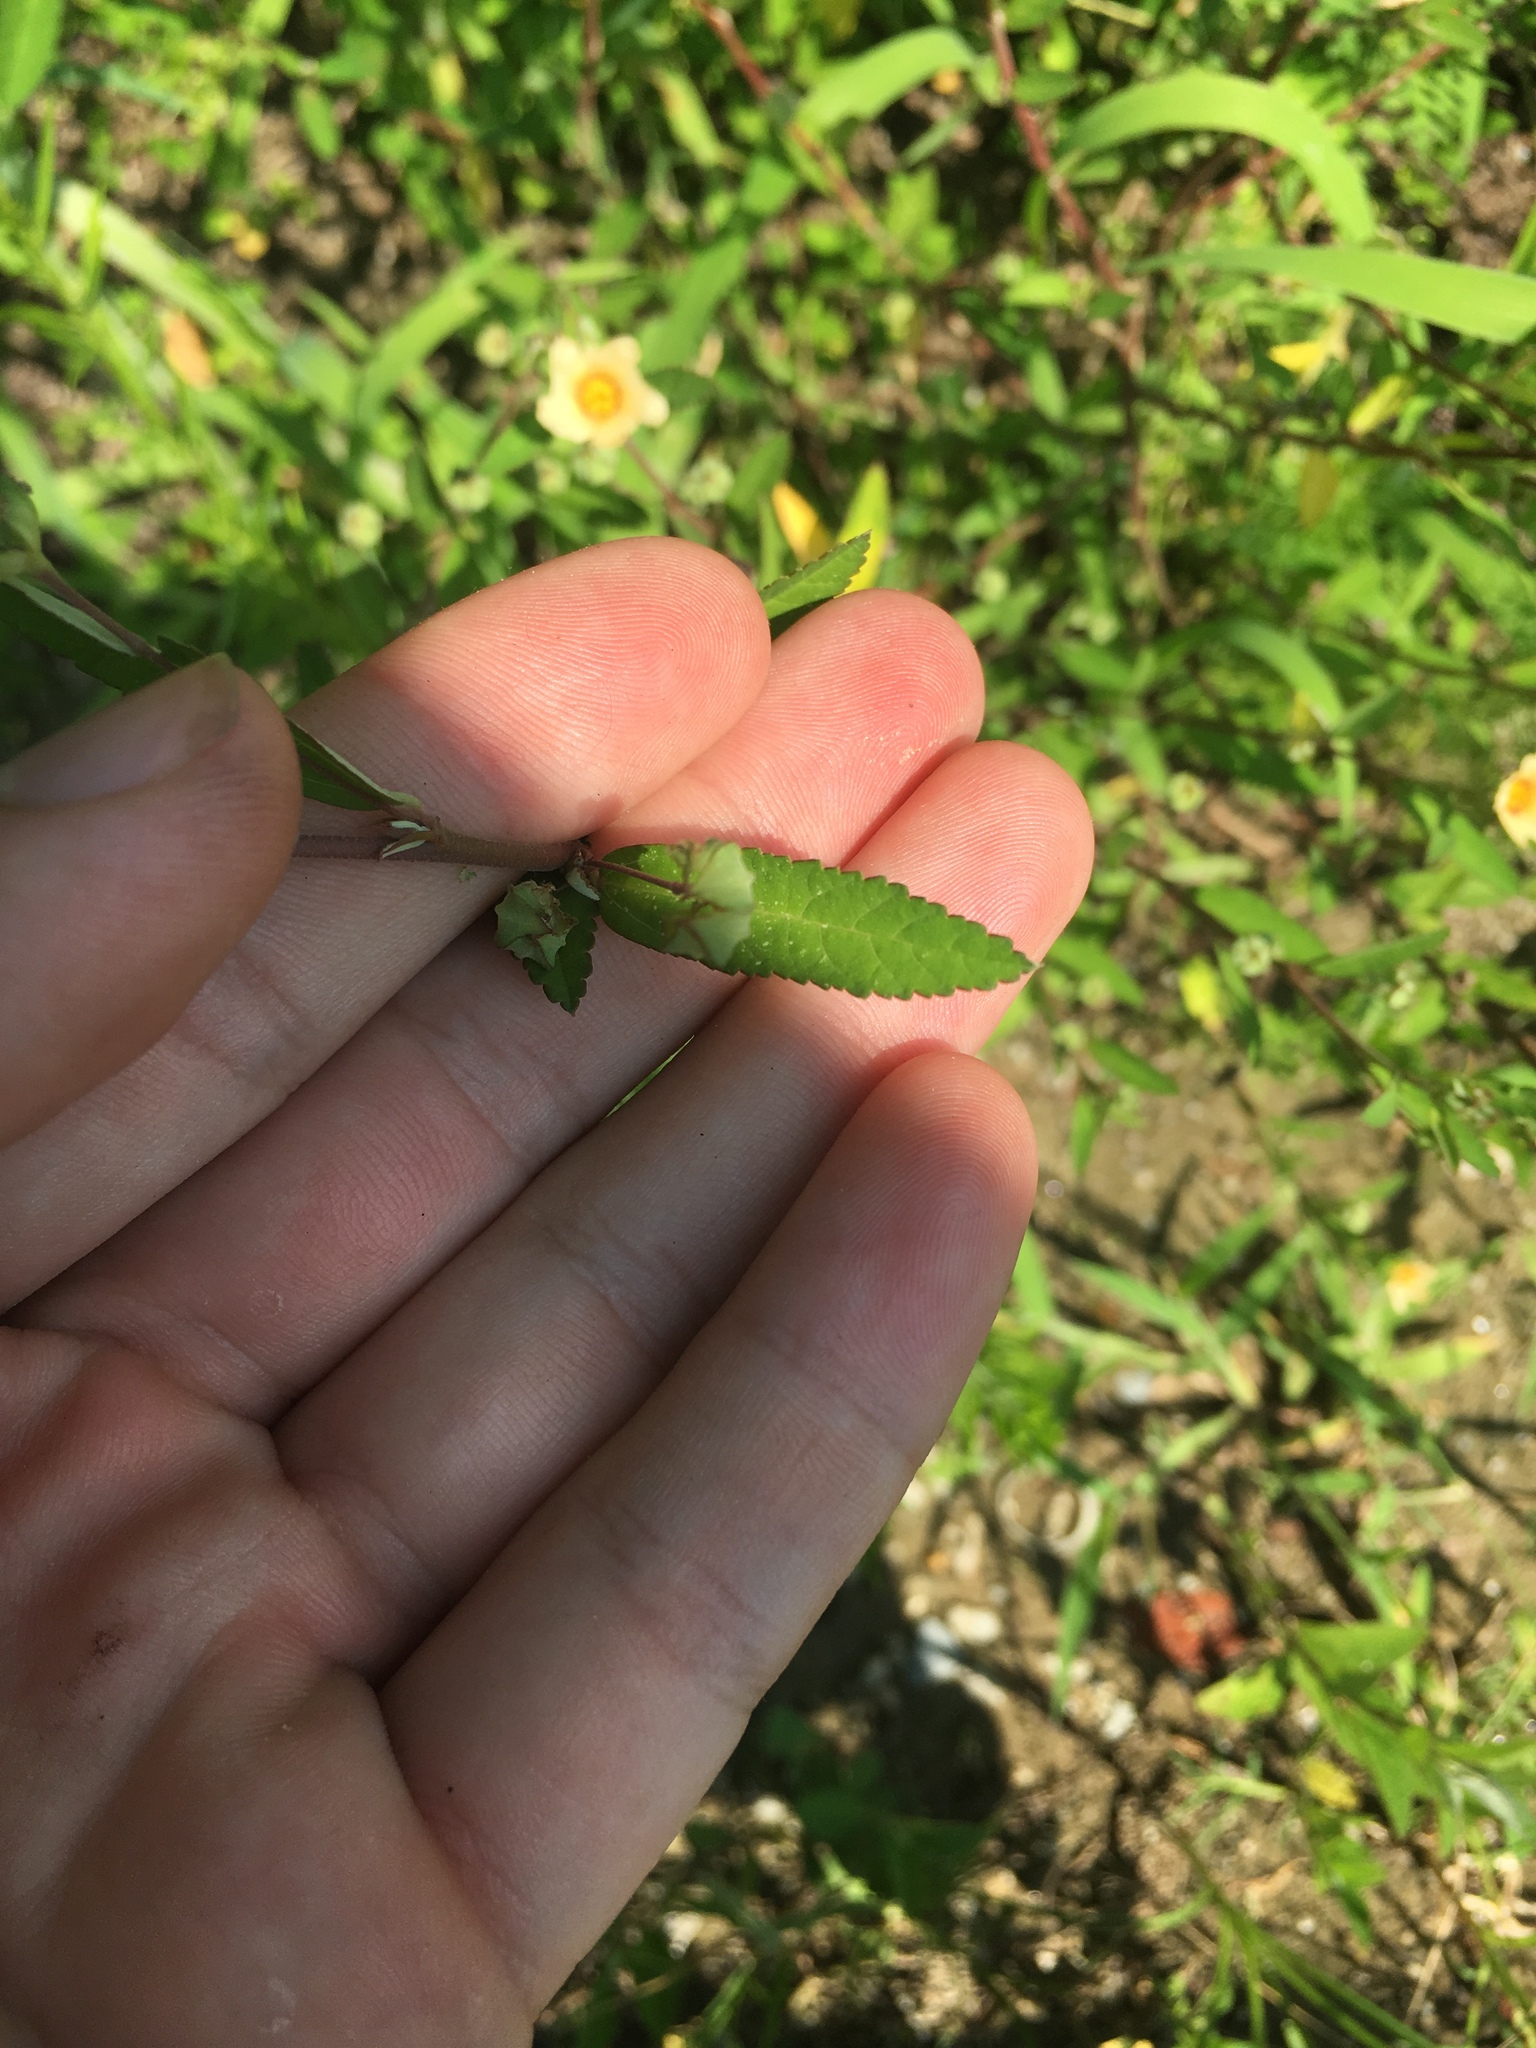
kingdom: Plantae
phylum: Tracheophyta
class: Magnoliopsida
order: Malvales
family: Malvaceae
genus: Sida
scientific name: Sida rhombifolia
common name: Queensland-hemp
